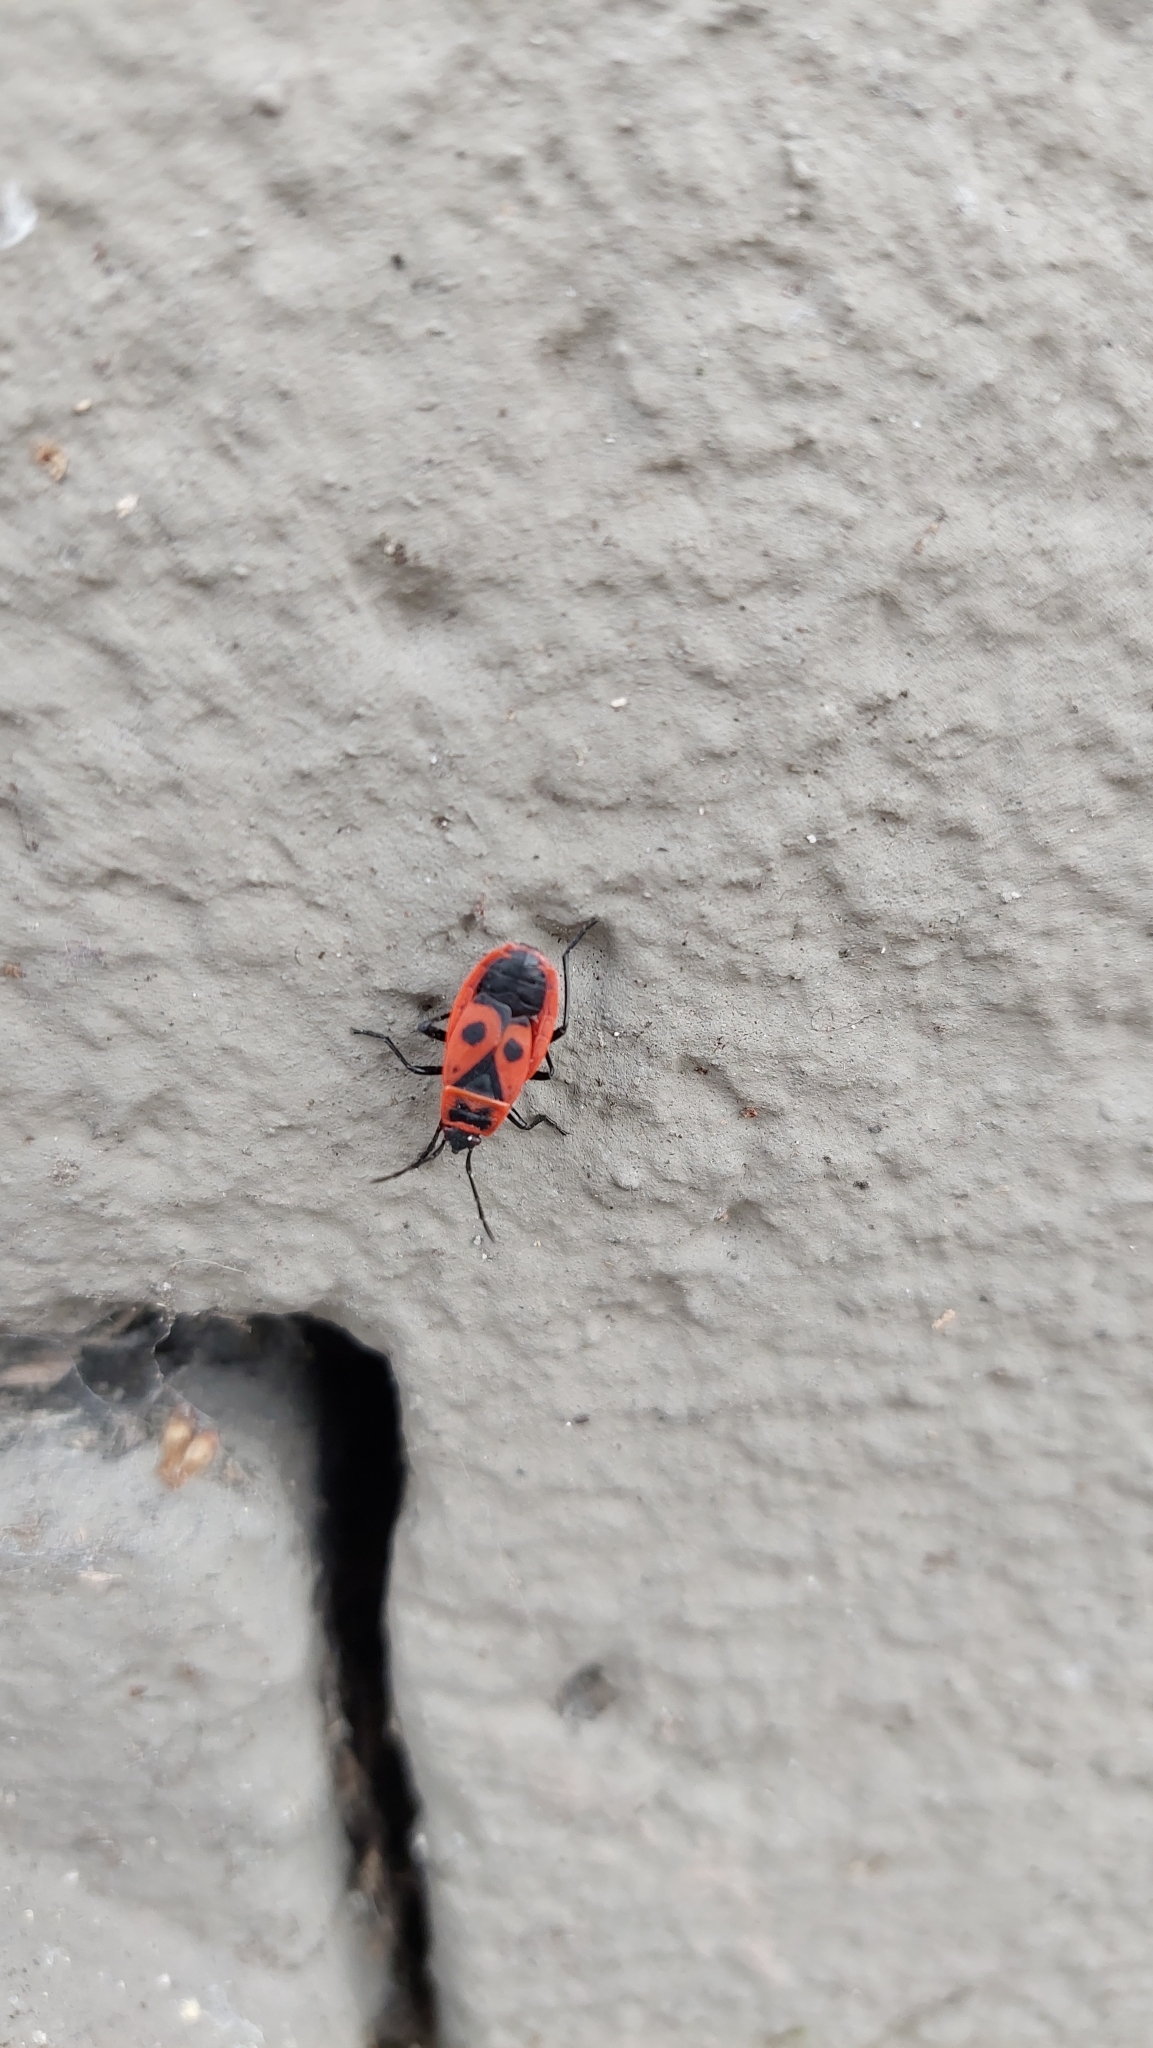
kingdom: Animalia
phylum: Arthropoda
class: Insecta
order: Hemiptera
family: Pyrrhocoridae
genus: Pyrrhocoris
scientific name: Pyrrhocoris apterus
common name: Firebug
